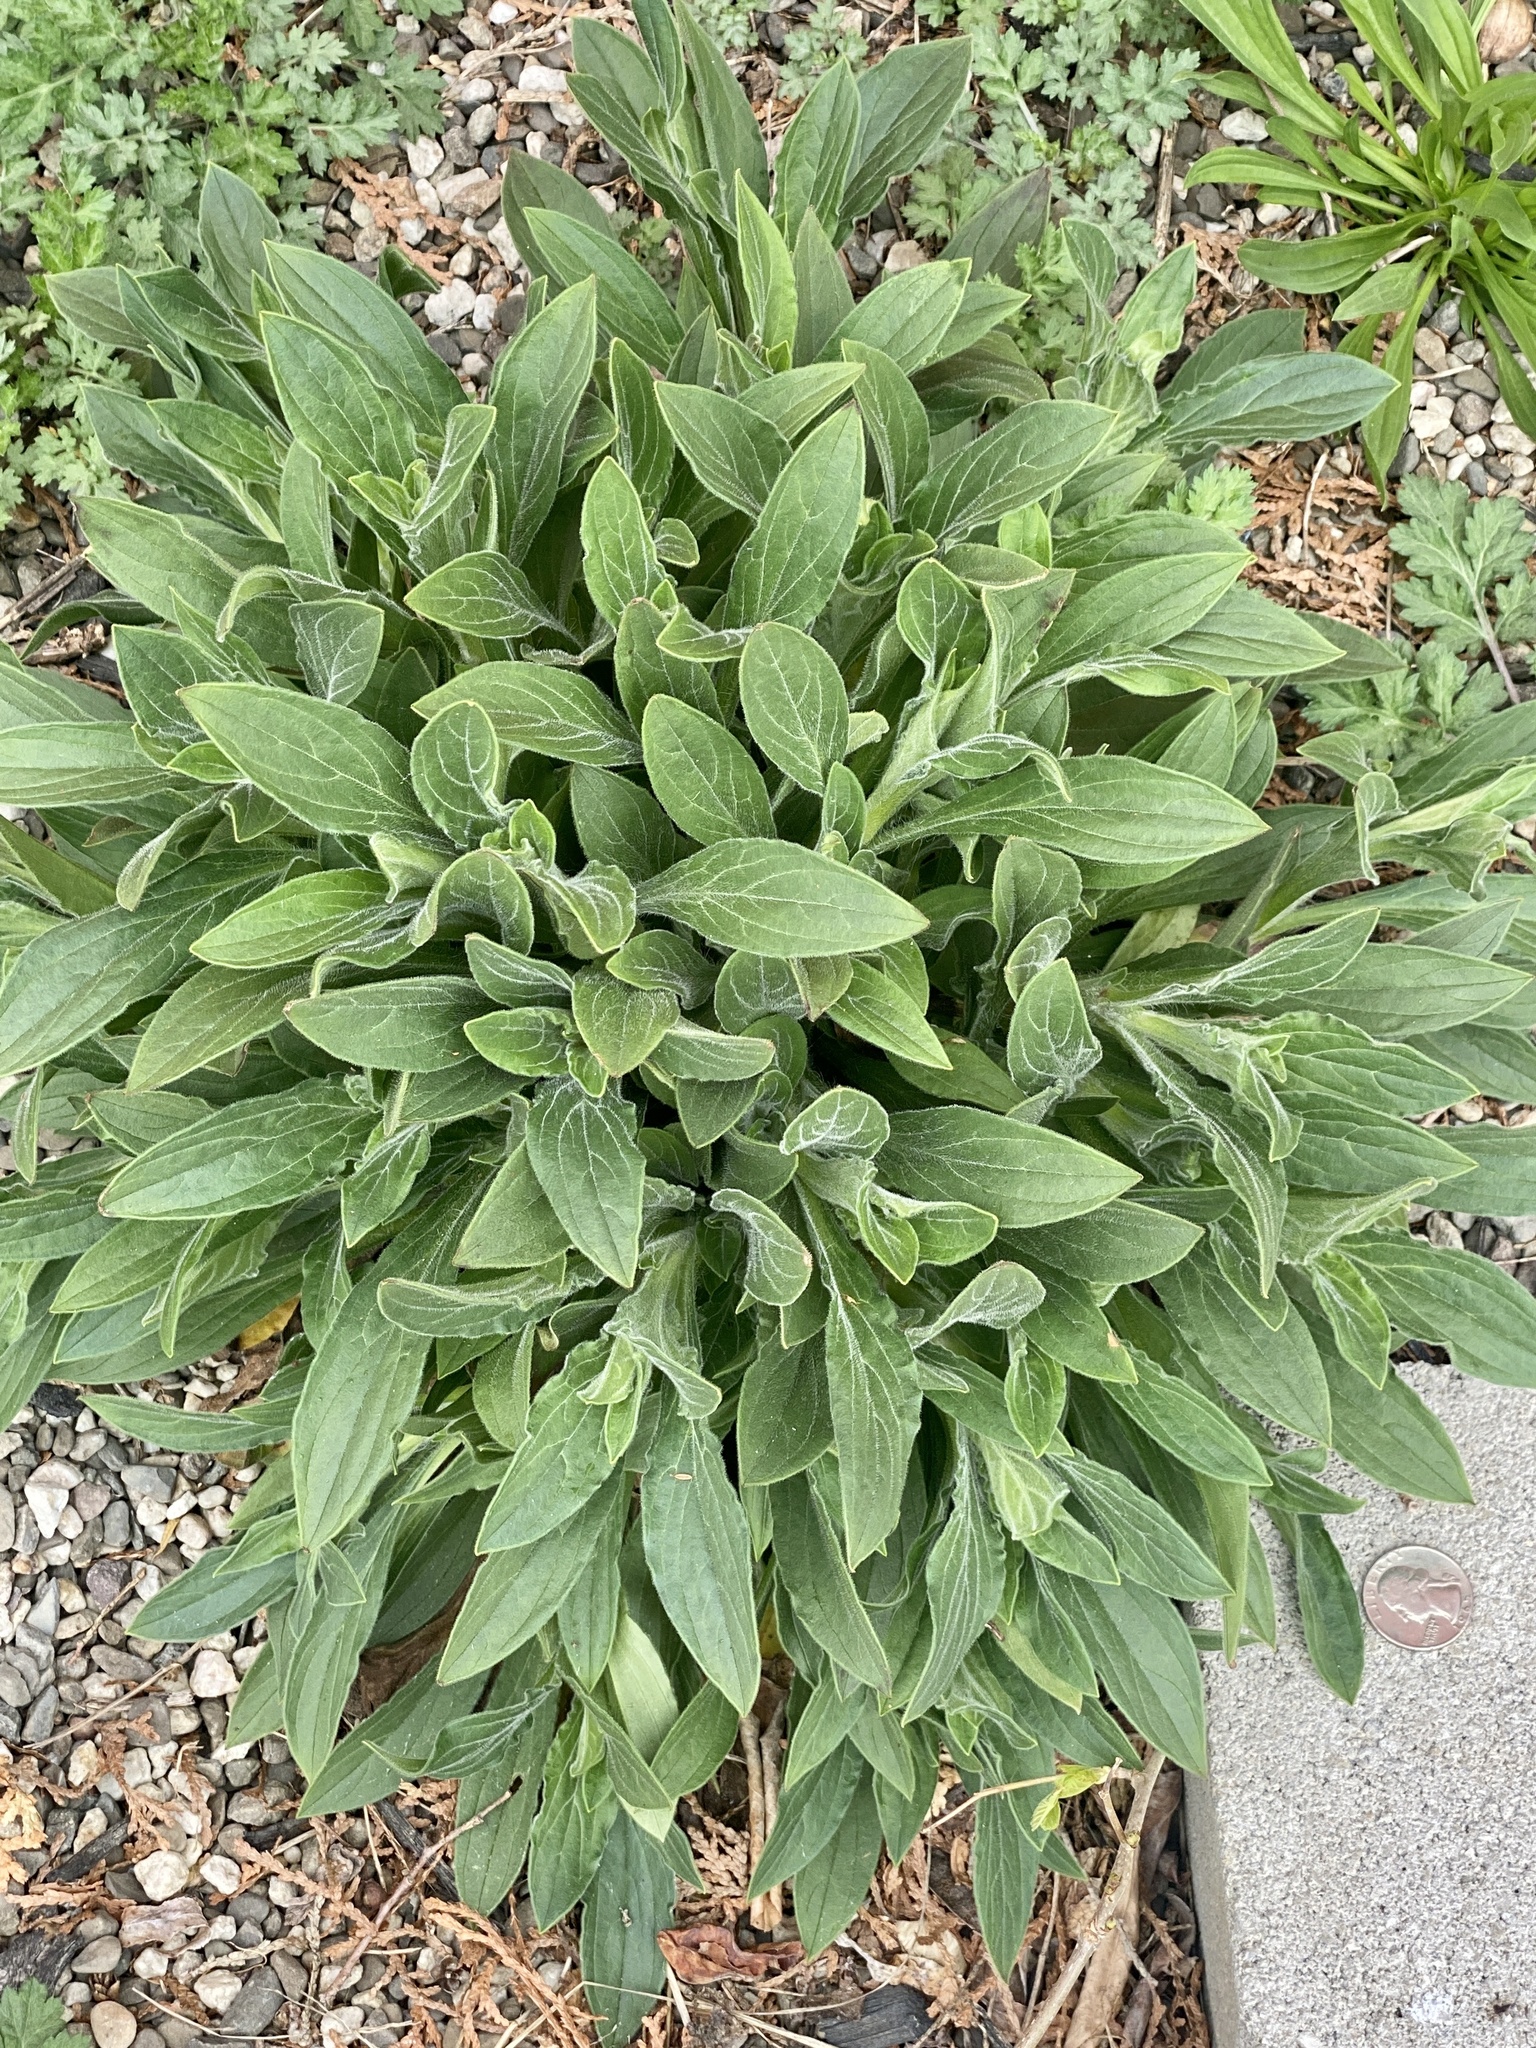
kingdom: Plantae
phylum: Tracheophyta
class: Magnoliopsida
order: Caryophyllales
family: Caryophyllaceae
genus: Silene
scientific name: Silene latifolia
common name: White campion
